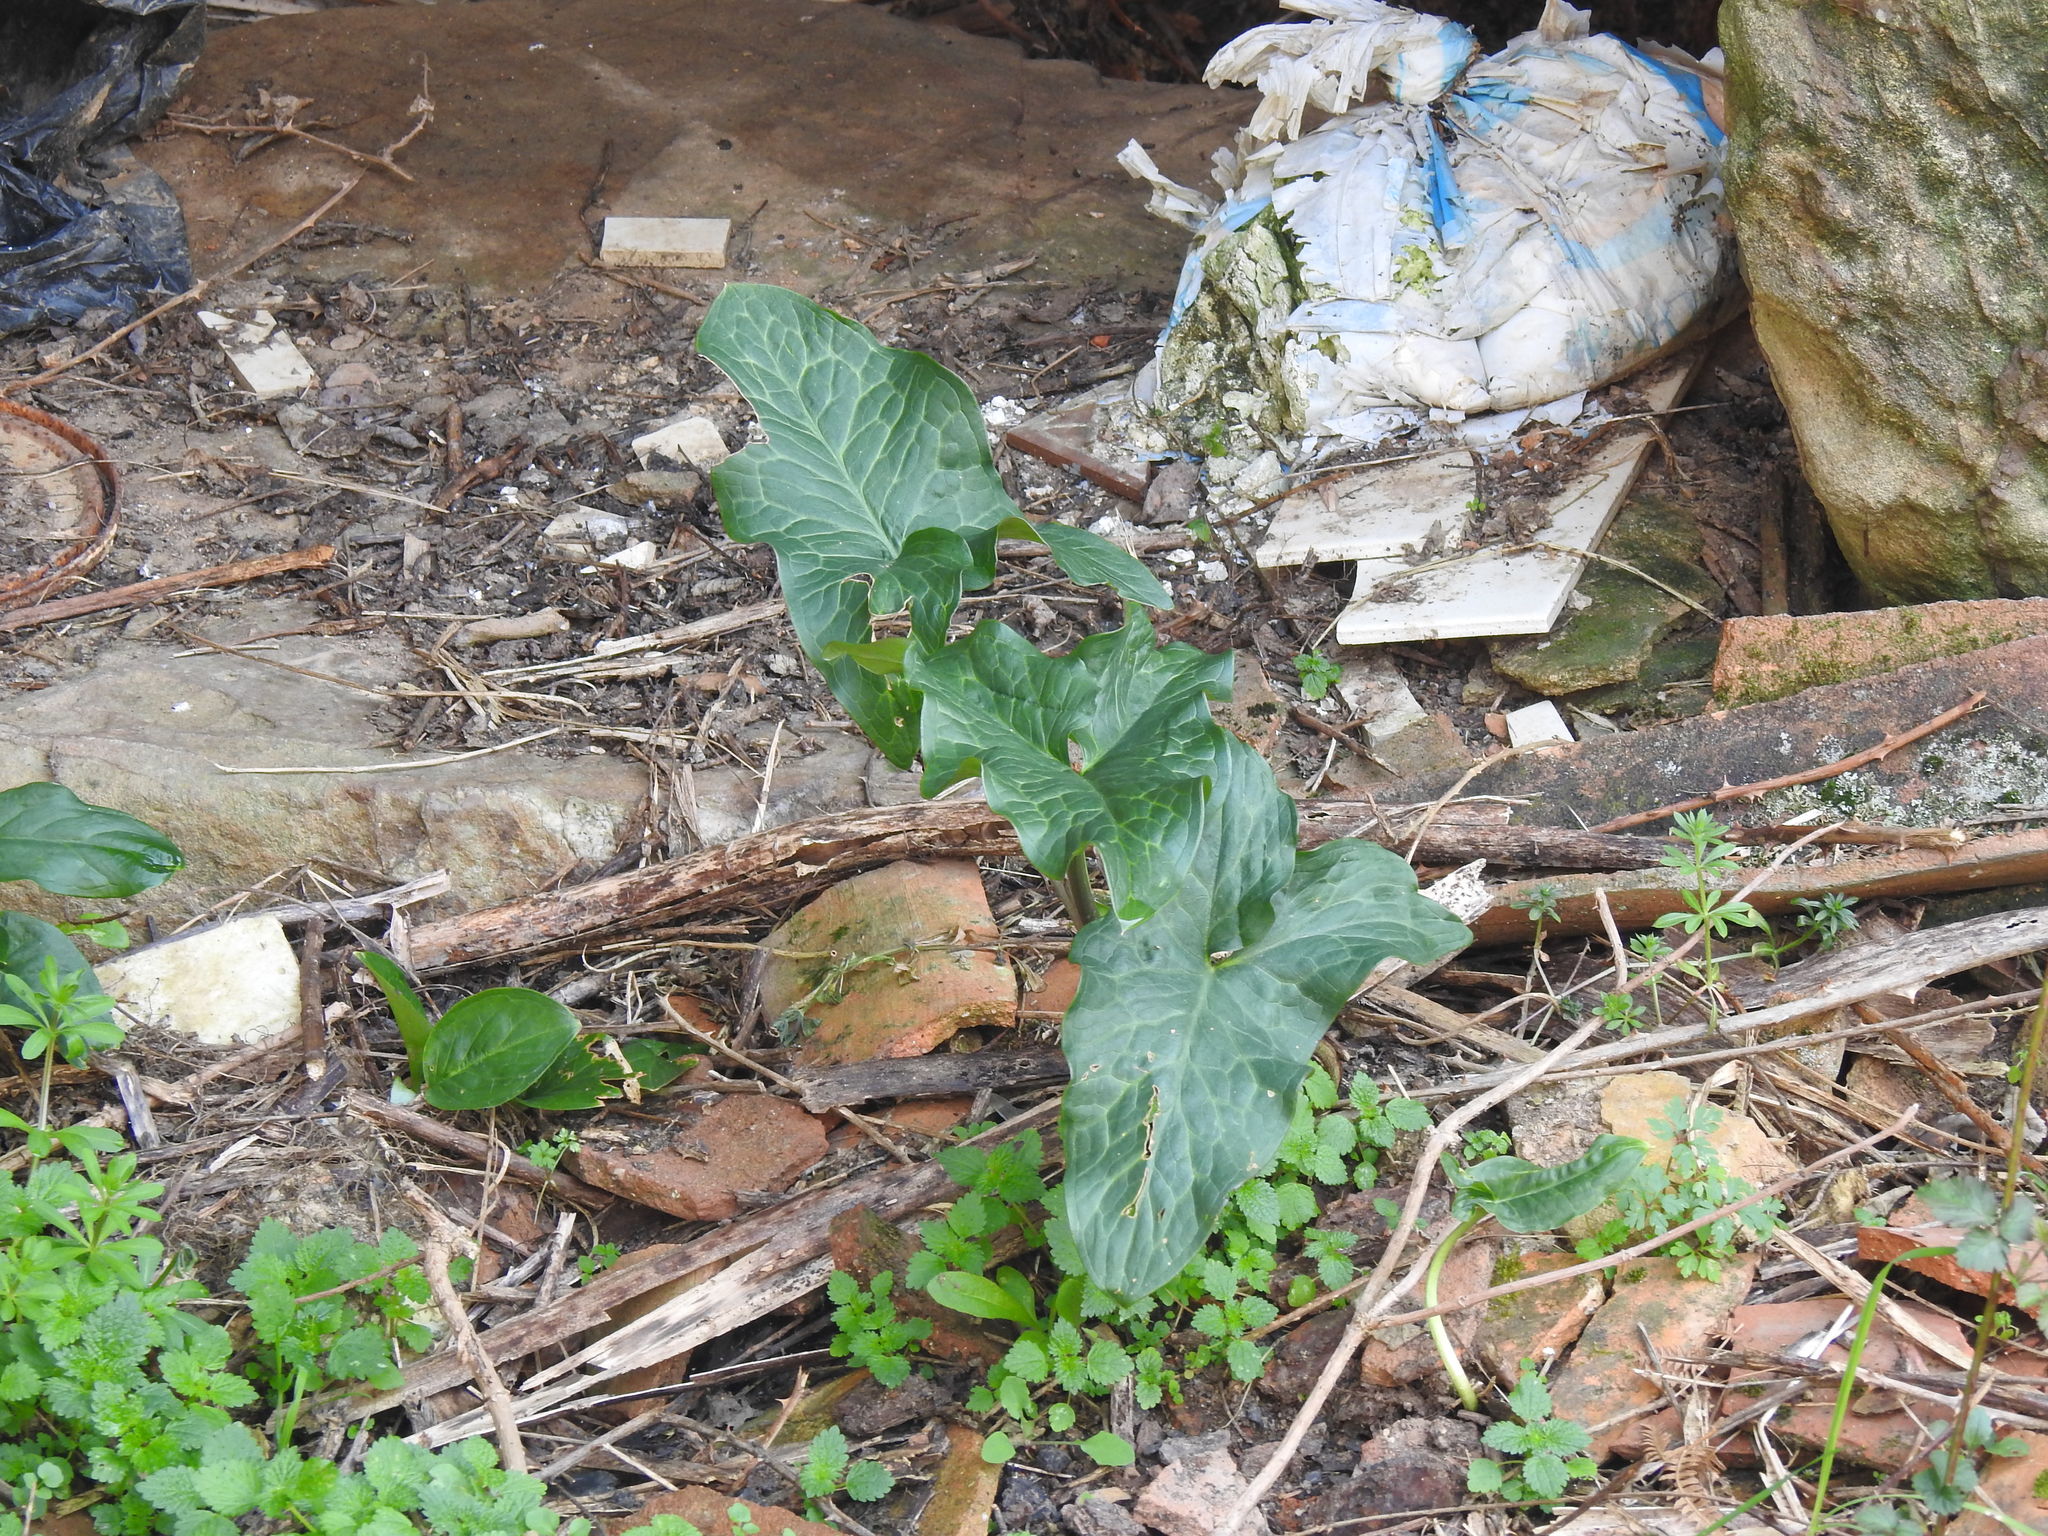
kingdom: Plantae
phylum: Tracheophyta
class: Liliopsida
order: Alismatales
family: Araceae
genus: Arum
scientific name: Arum italicum
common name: Italian lords-and-ladies
